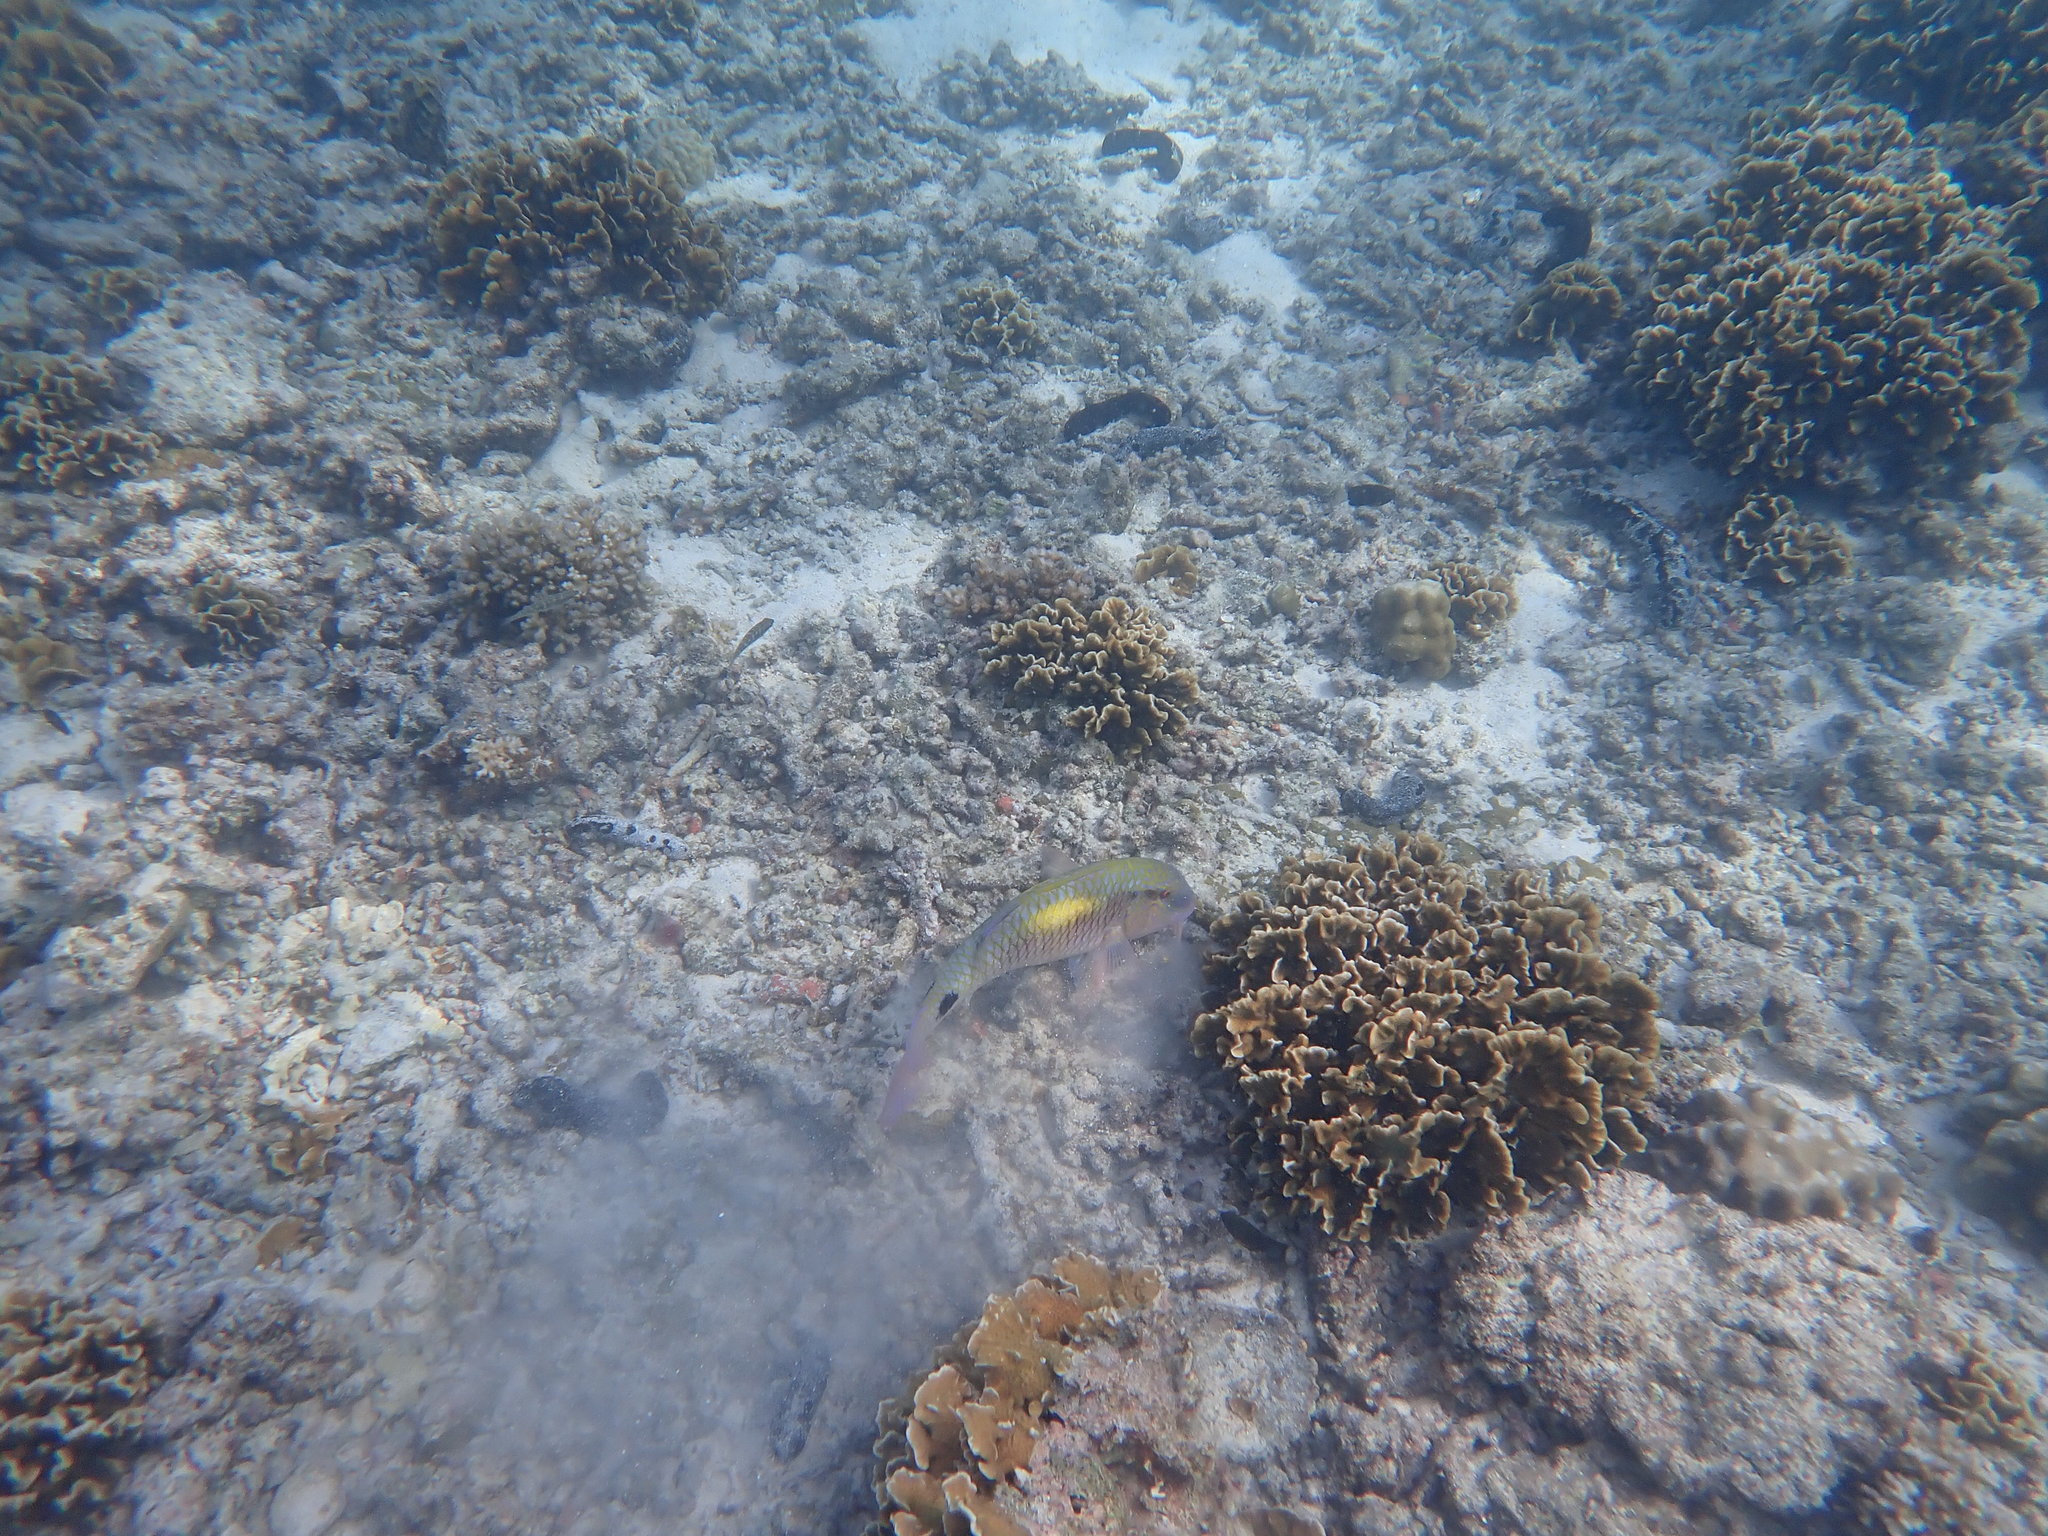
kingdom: Animalia
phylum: Chordata
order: Perciformes
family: Mullidae
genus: Parupeneus
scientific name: Parupeneus indicus
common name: Indian goatfish
